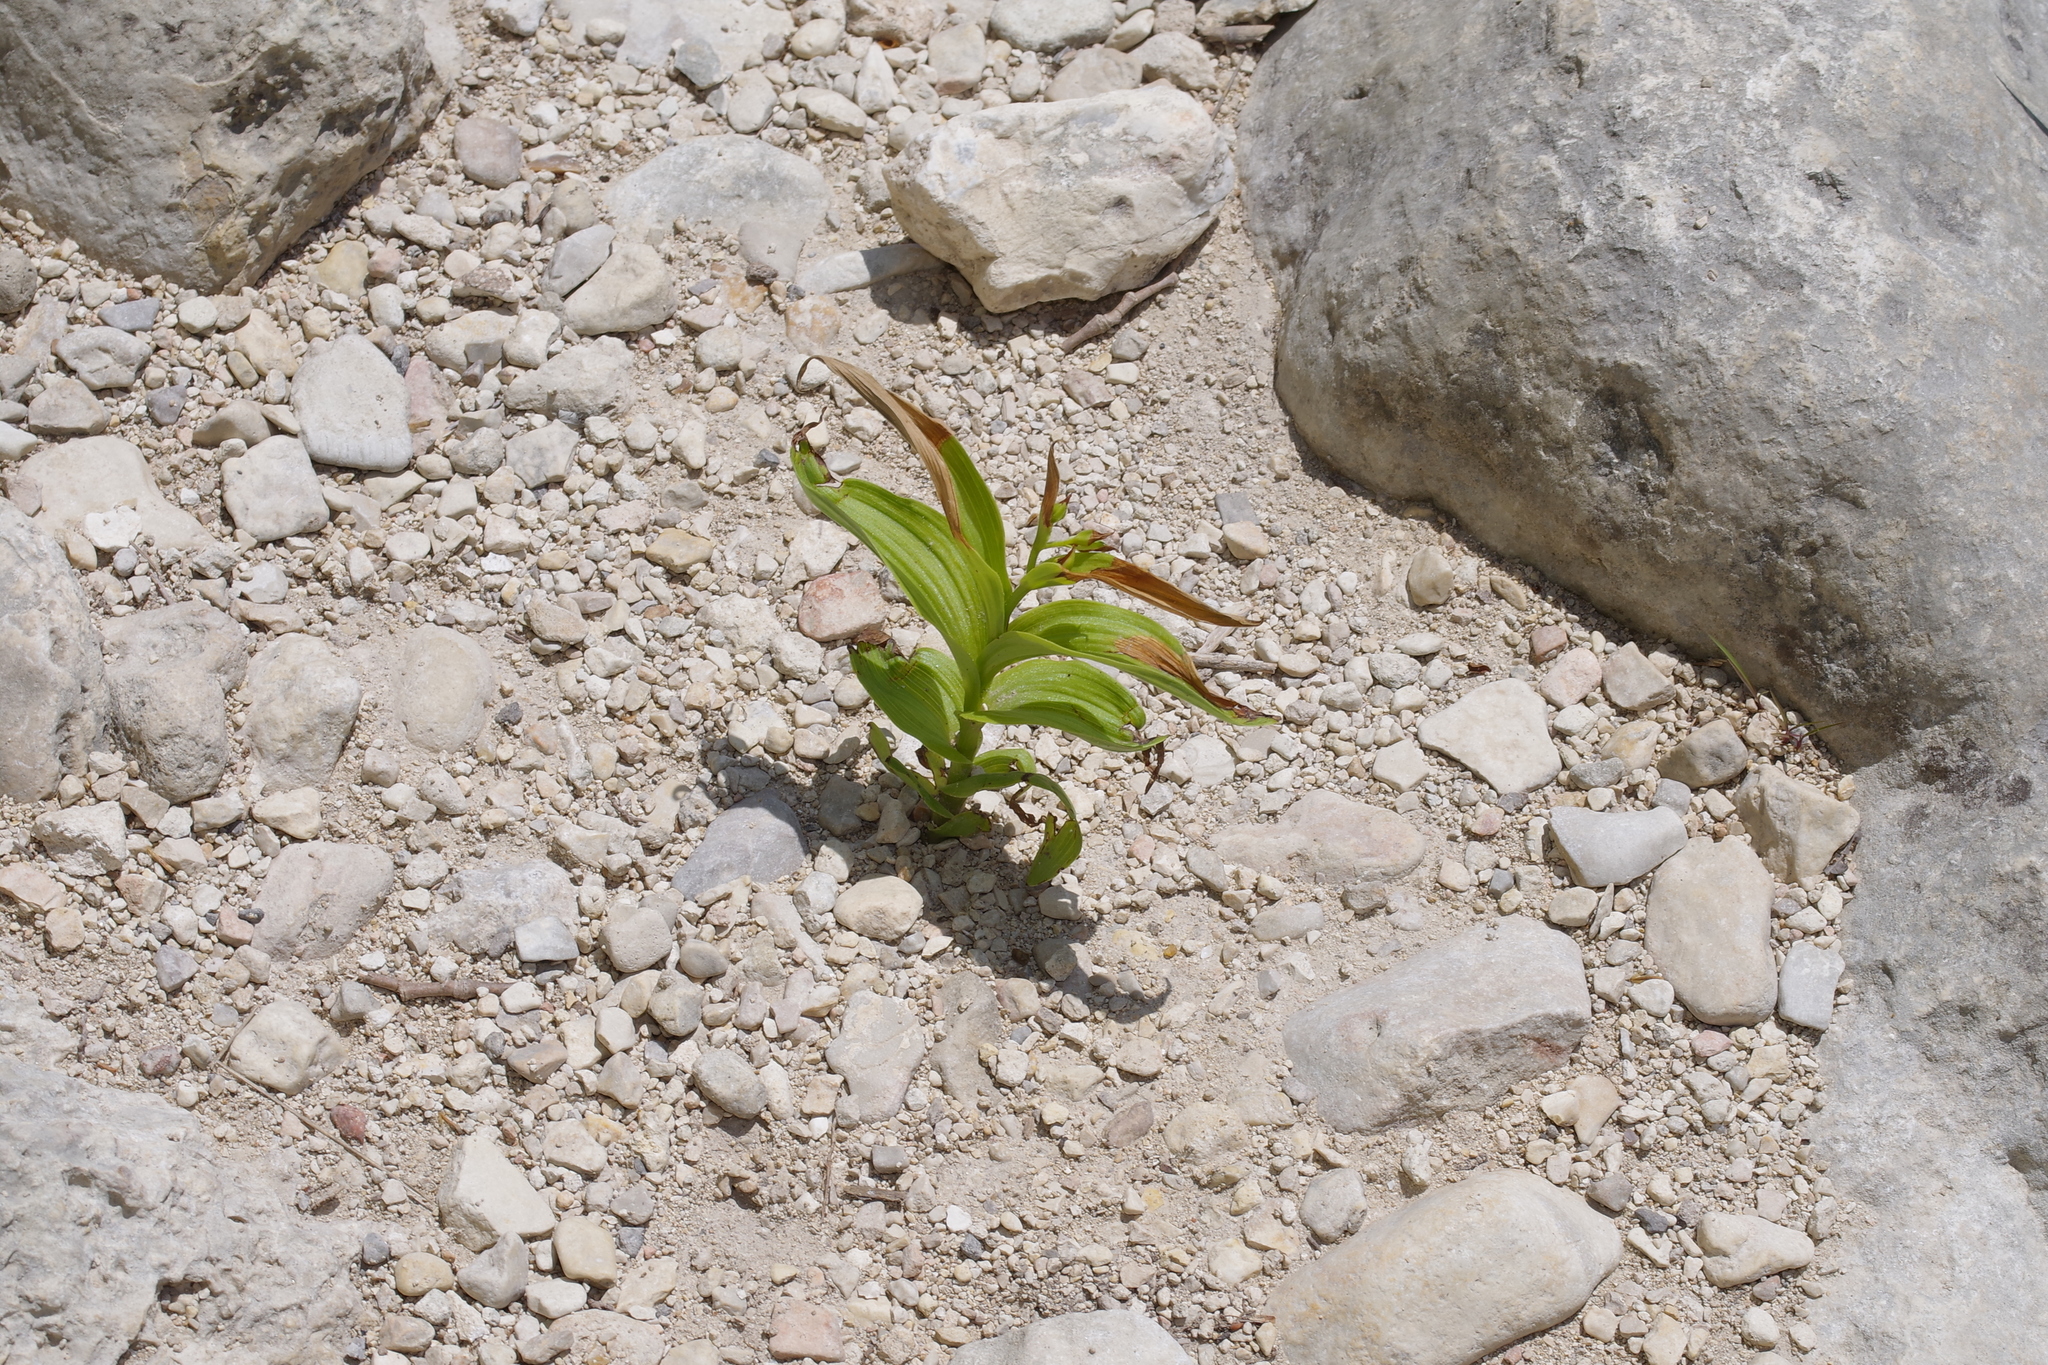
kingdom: Plantae
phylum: Tracheophyta
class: Liliopsida
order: Asparagales
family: Orchidaceae
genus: Epipactis
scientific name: Epipactis gigantea
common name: Chatterbox
